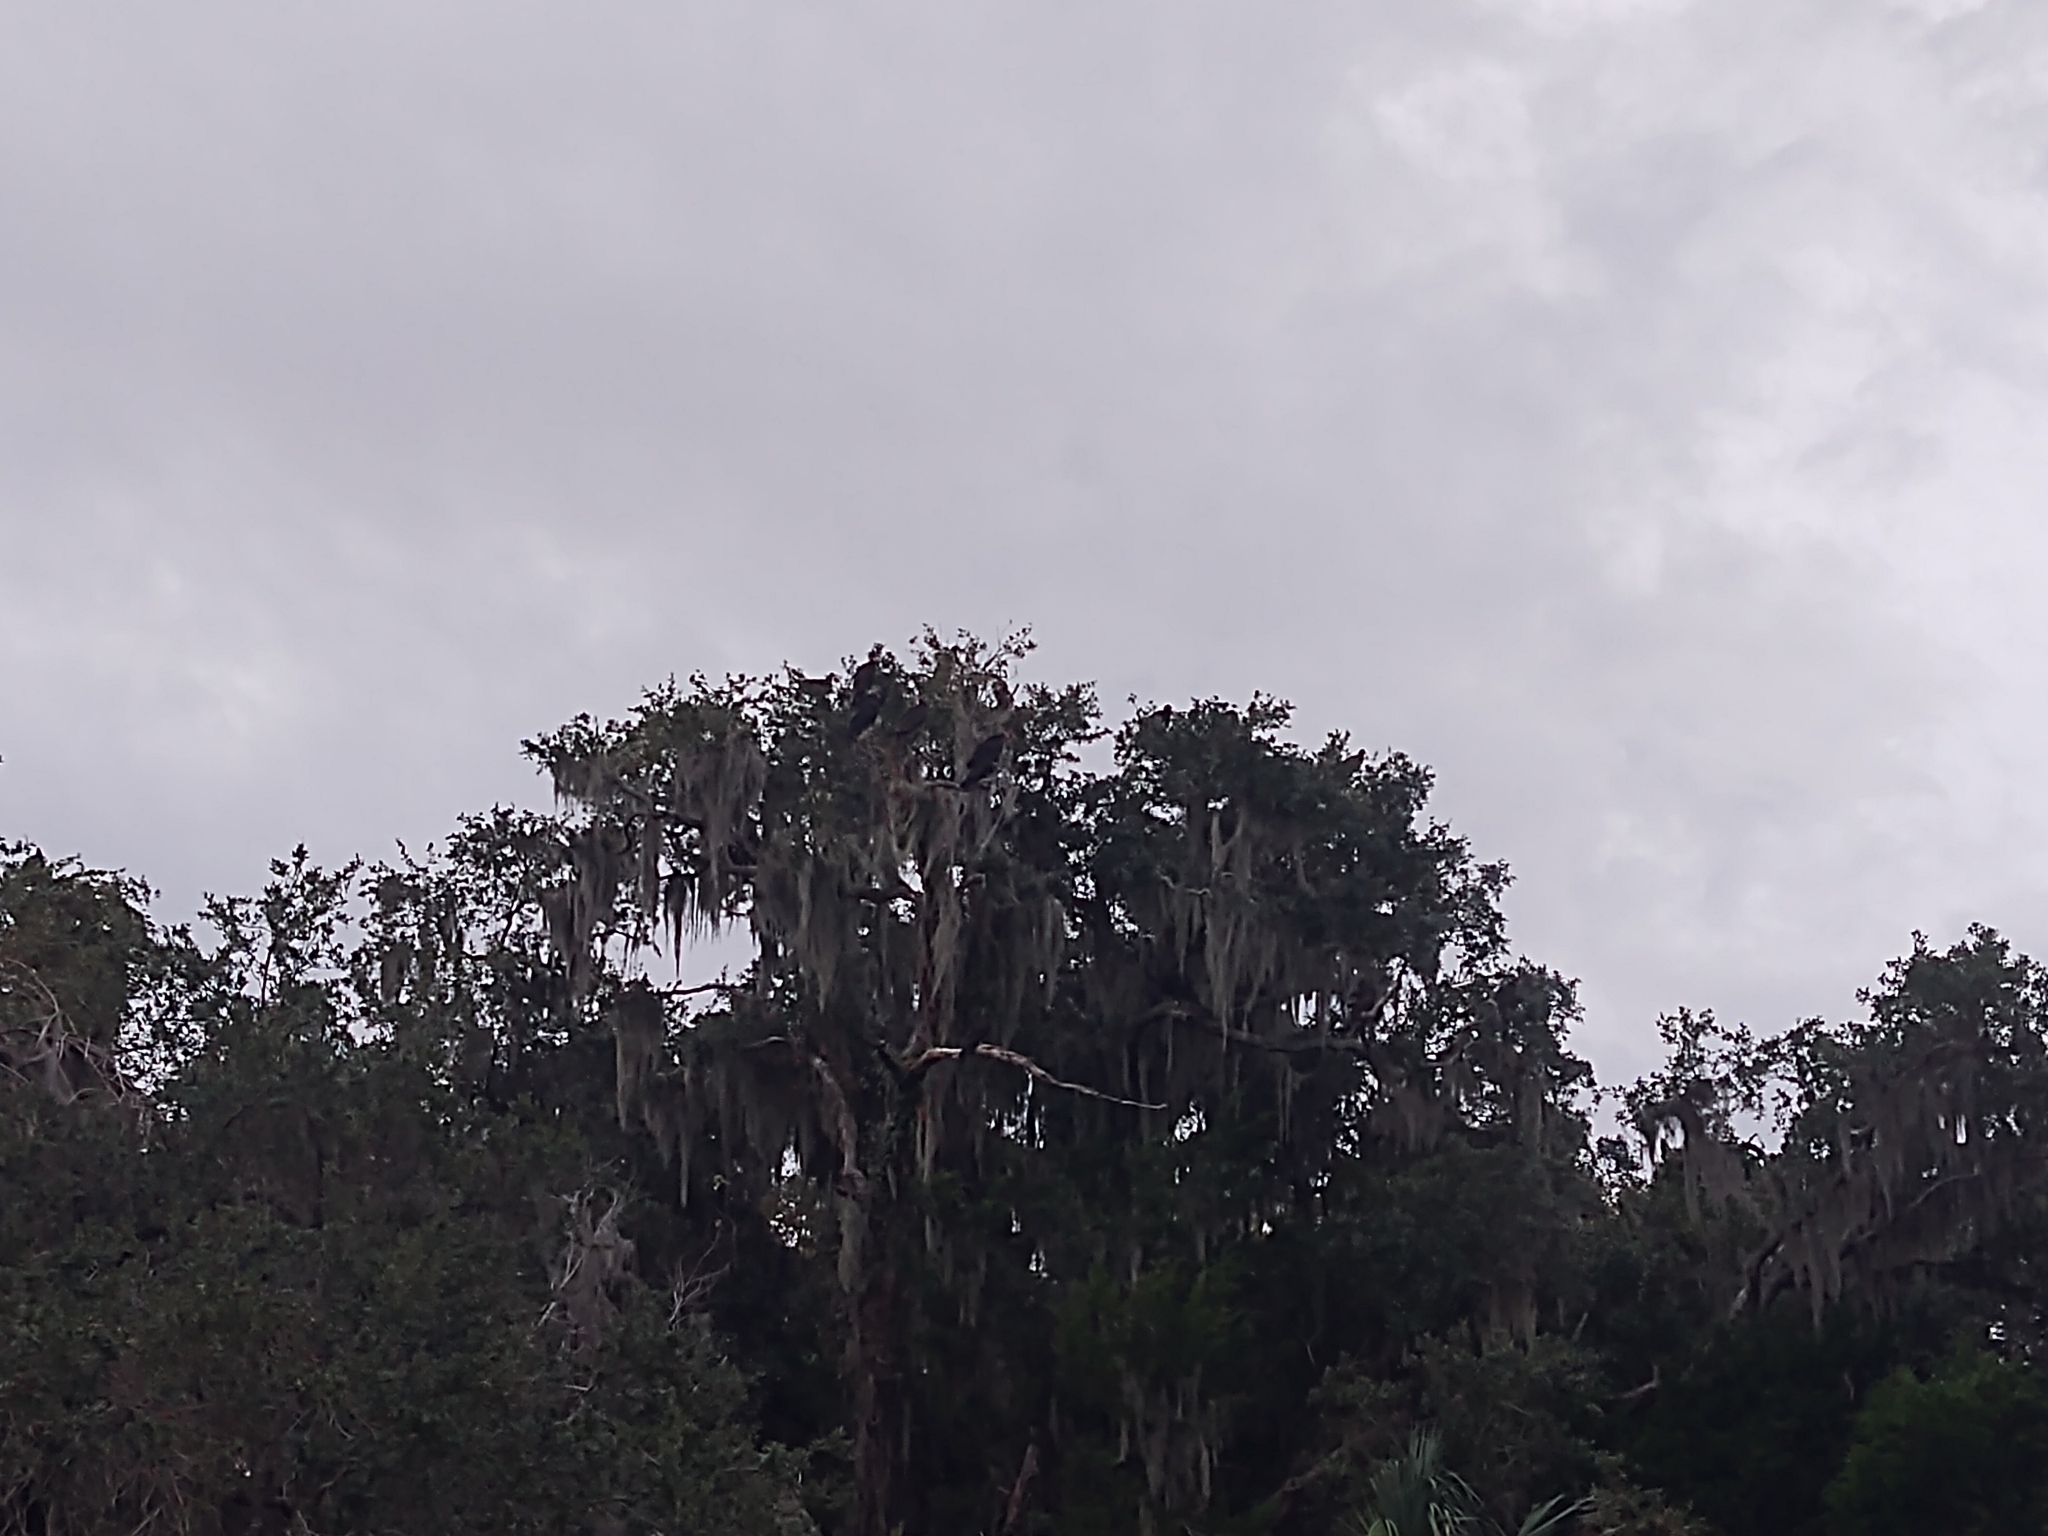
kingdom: Animalia
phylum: Chordata
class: Aves
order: Accipitriformes
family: Cathartidae
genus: Cathartes
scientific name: Cathartes aura
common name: Turkey vulture
